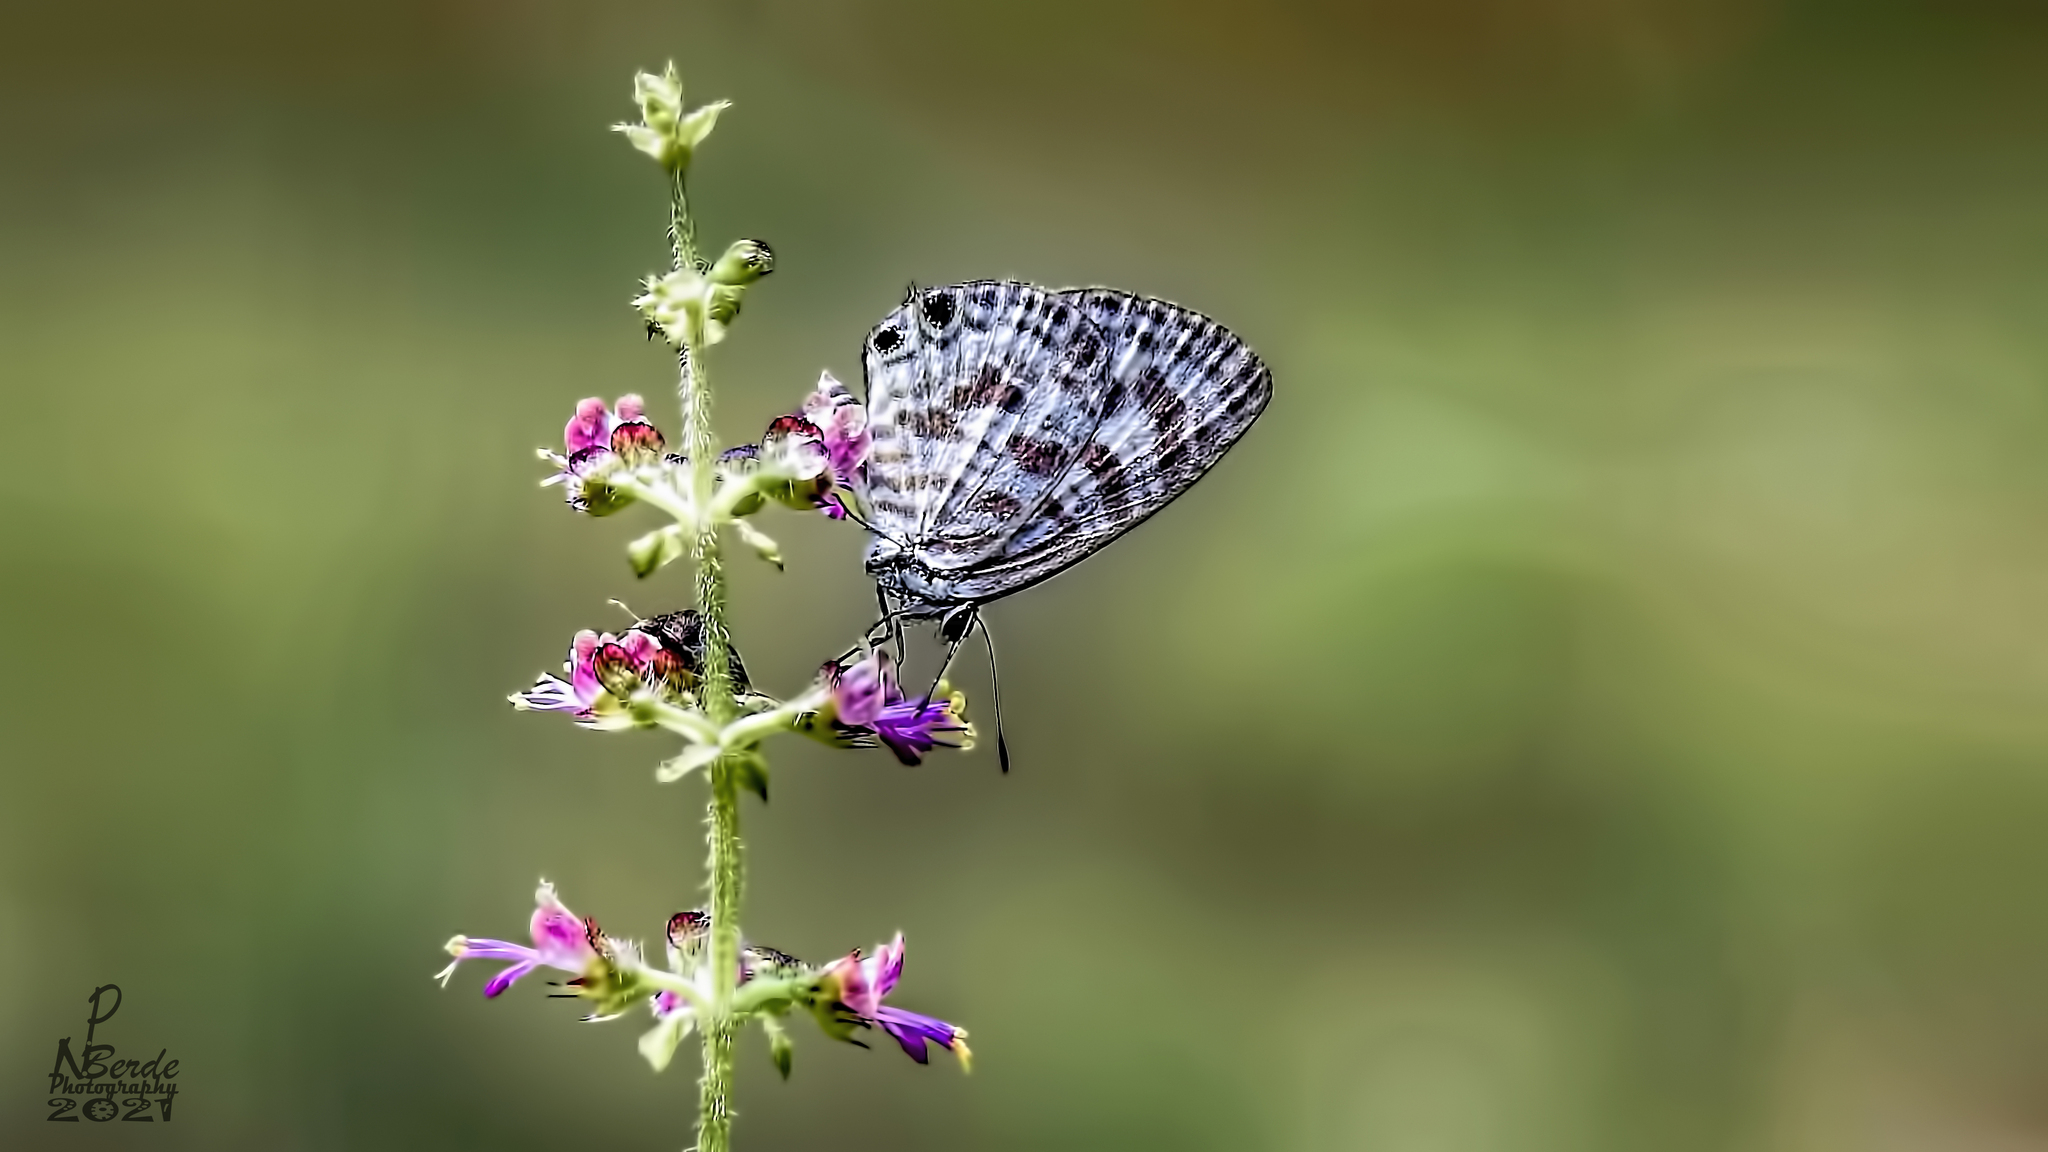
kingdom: Animalia
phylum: Arthropoda
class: Insecta
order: Lepidoptera
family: Lycaenidae
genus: Leptotes
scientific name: Leptotes plinius
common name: Zebra blue
